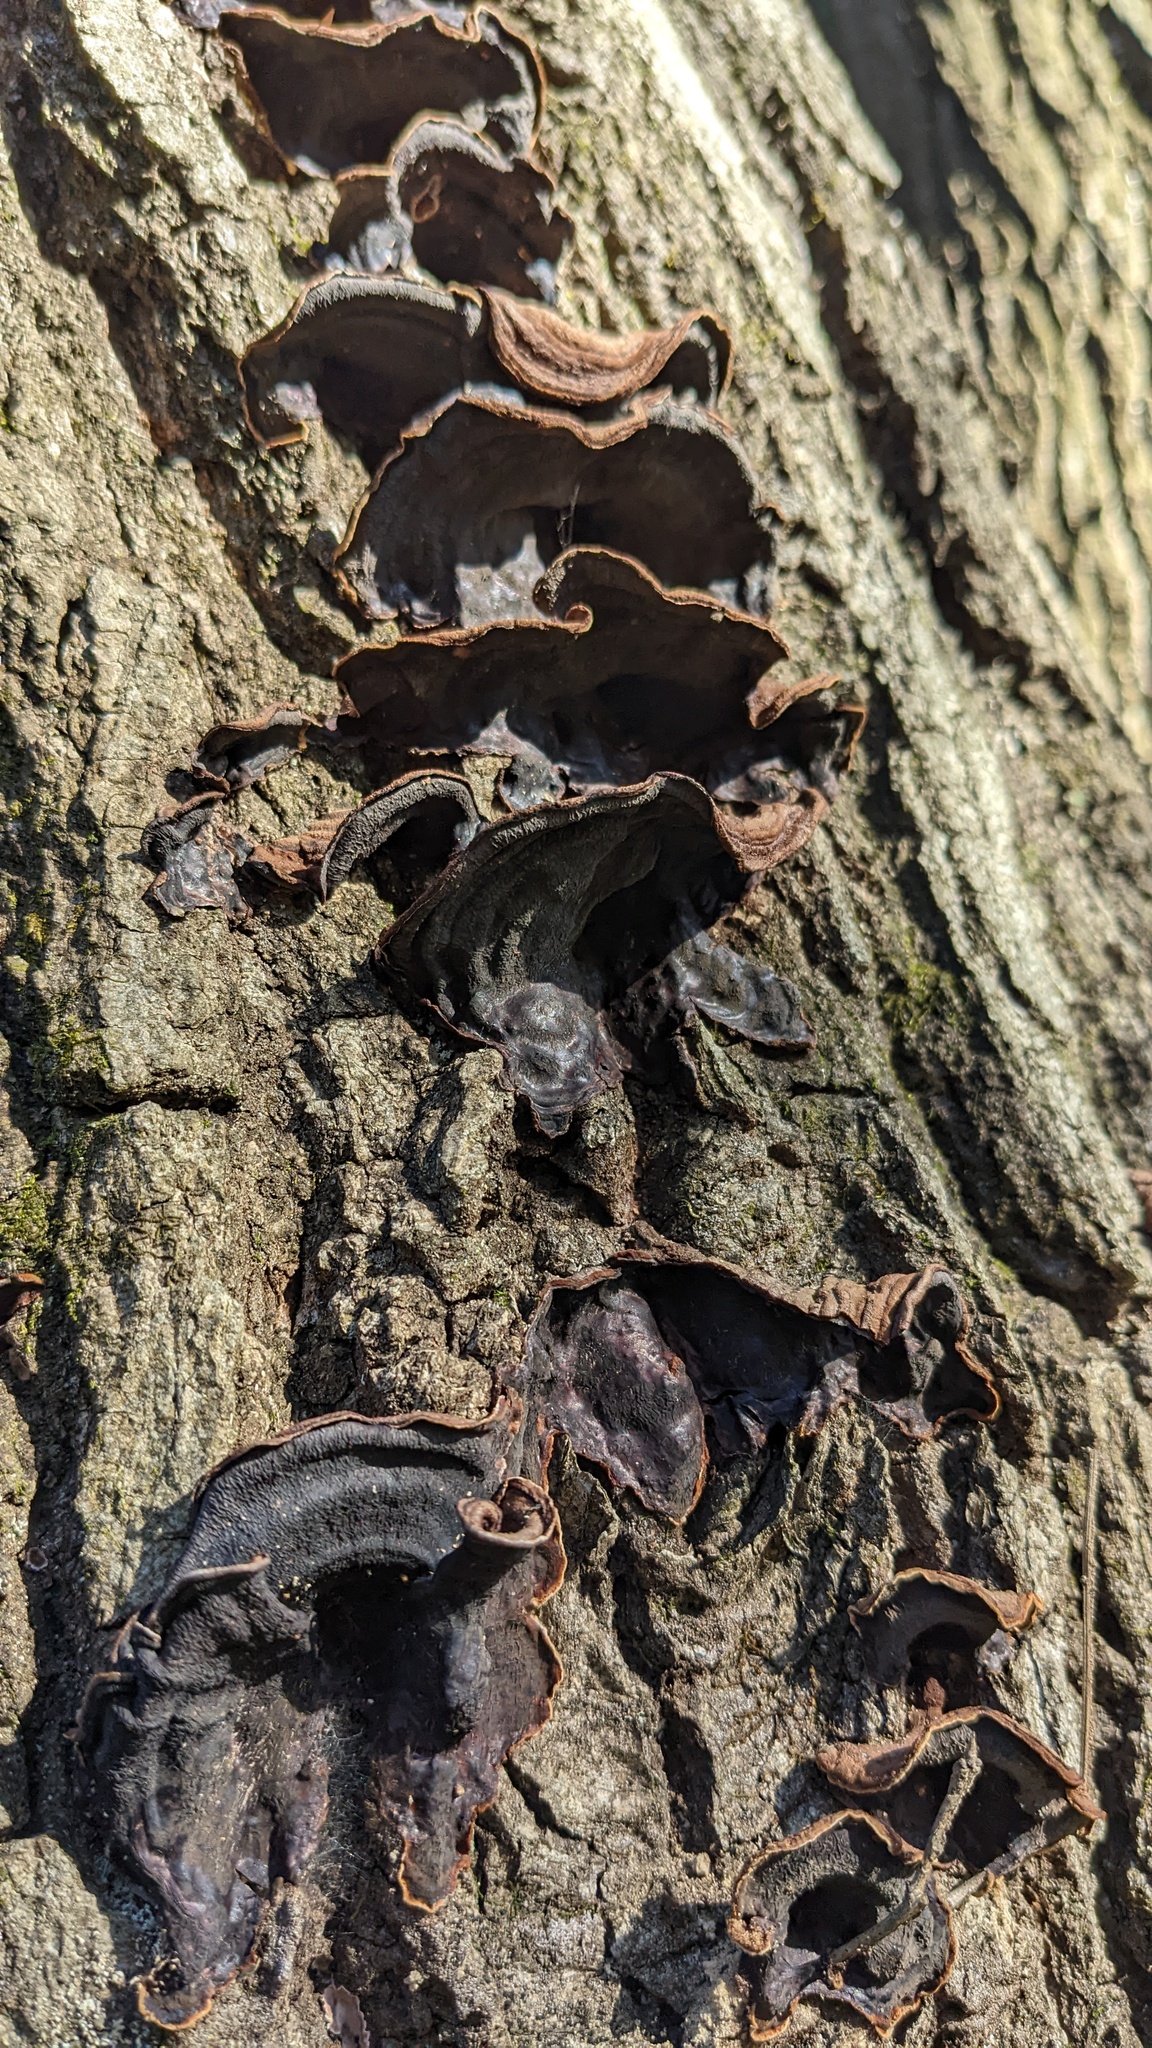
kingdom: Fungi
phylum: Basidiomycota
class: Agaricomycetes
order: Corticiales
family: Punctulariaceae
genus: Punctularia
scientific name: Punctularia strigosozonata
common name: White-rot fungus
